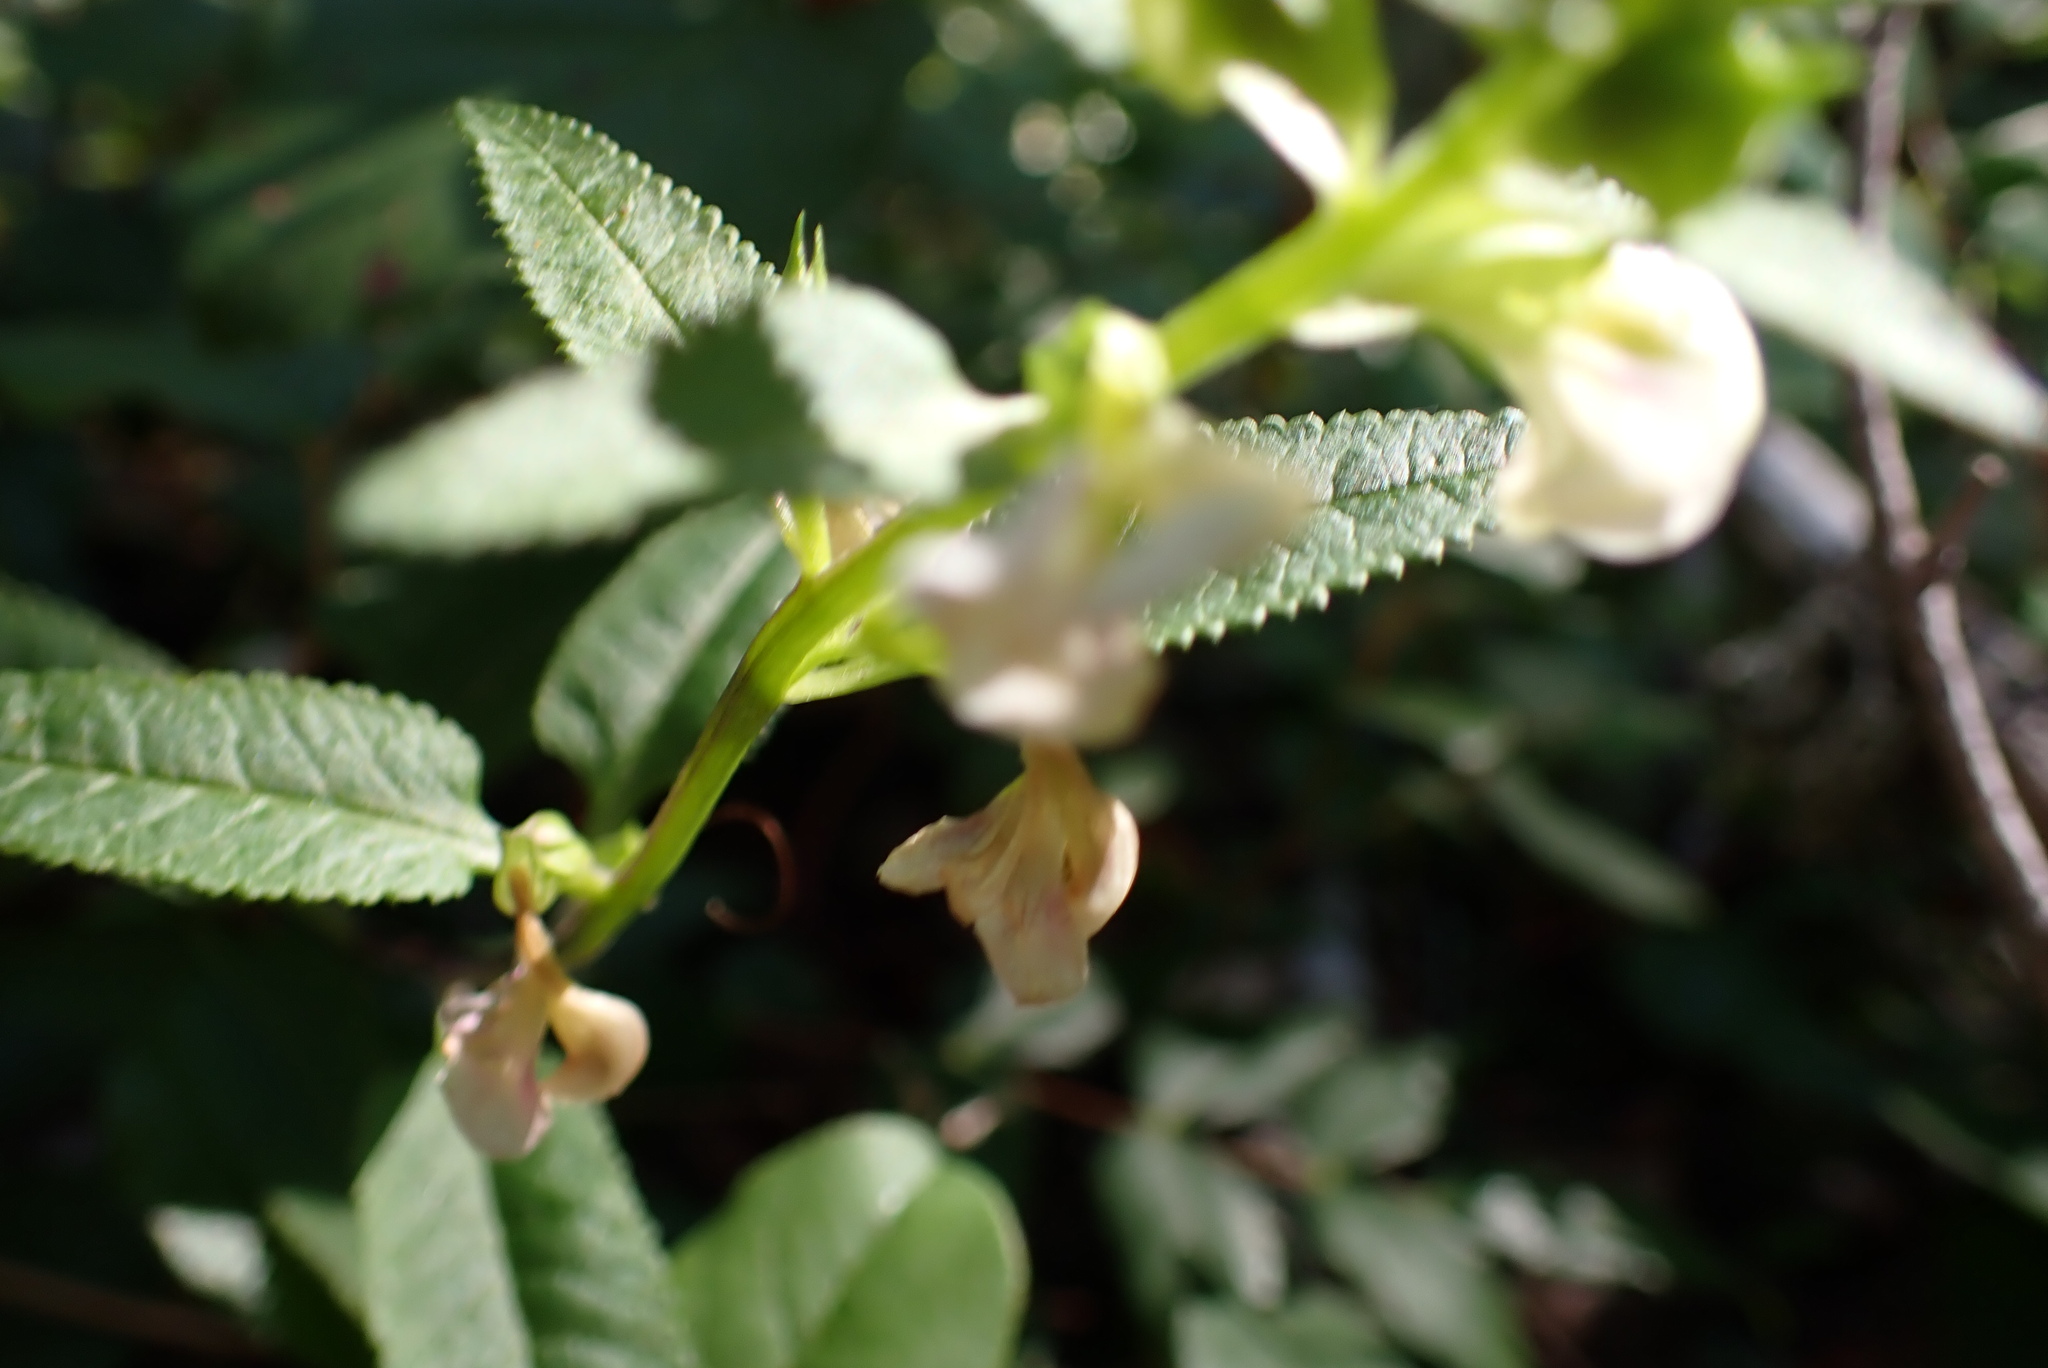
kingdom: Plantae
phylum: Tracheophyta
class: Magnoliopsida
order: Lamiales
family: Orobanchaceae
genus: Pedicularis
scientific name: Pedicularis racemosa
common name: Leafy lousewort
